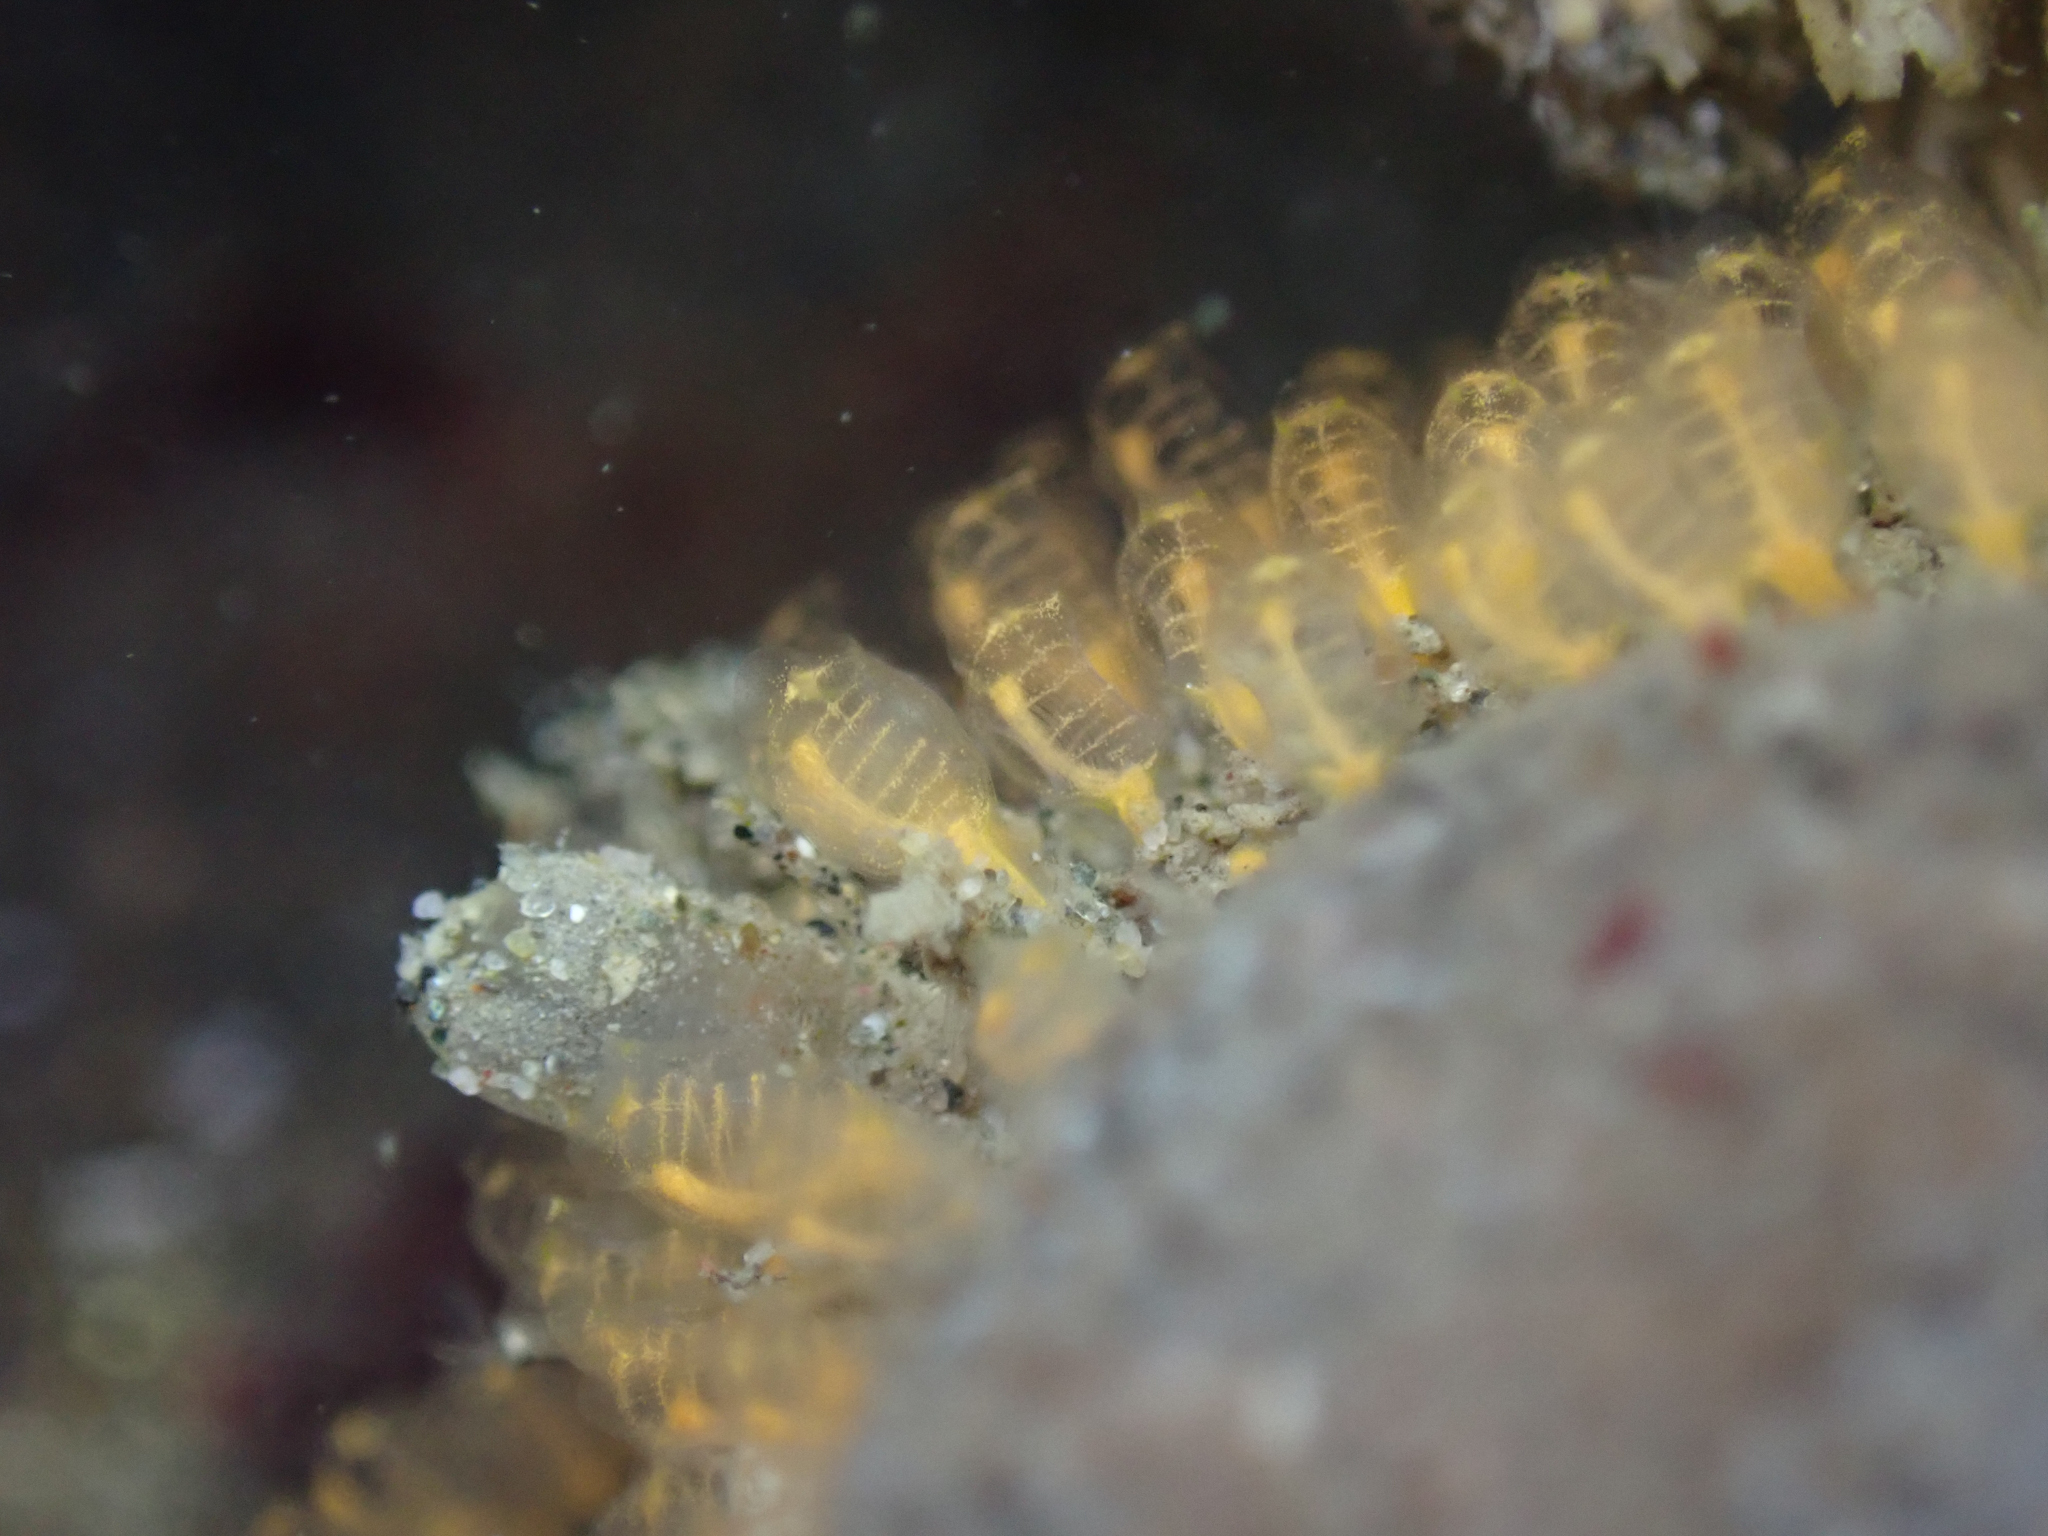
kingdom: Animalia
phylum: Chordata
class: Ascidiacea
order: Aplousobranchia
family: Clavelinidae
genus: Pycnoclavella
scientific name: Pycnoclavella stanleyi
